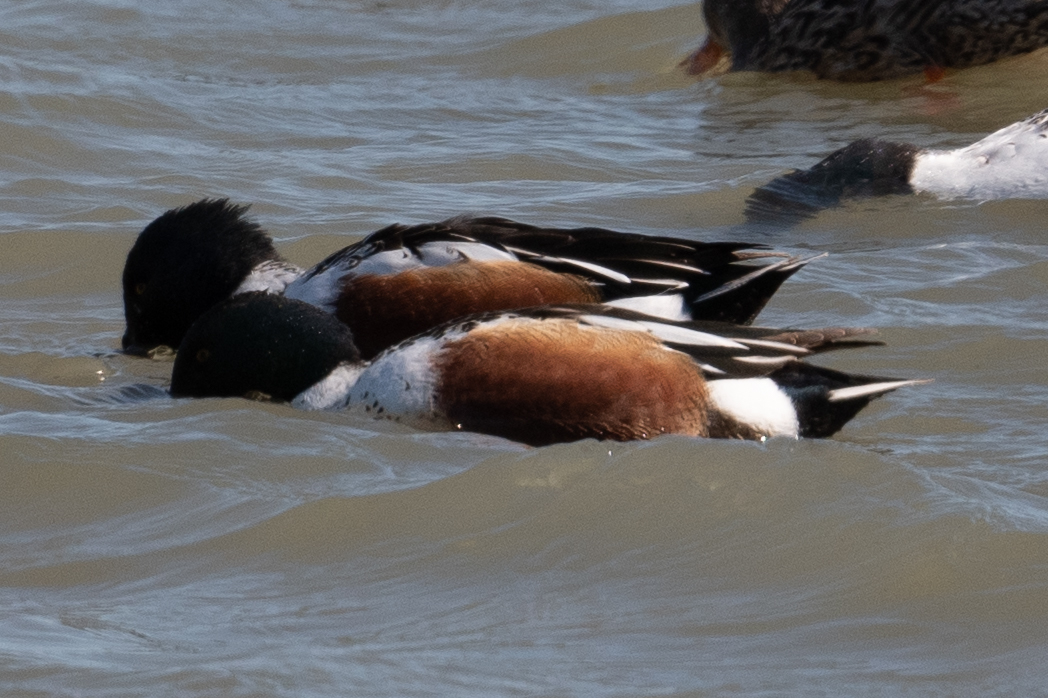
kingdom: Animalia
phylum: Chordata
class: Aves
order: Anseriformes
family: Anatidae
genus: Spatula
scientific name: Spatula clypeata
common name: Northern shoveler
